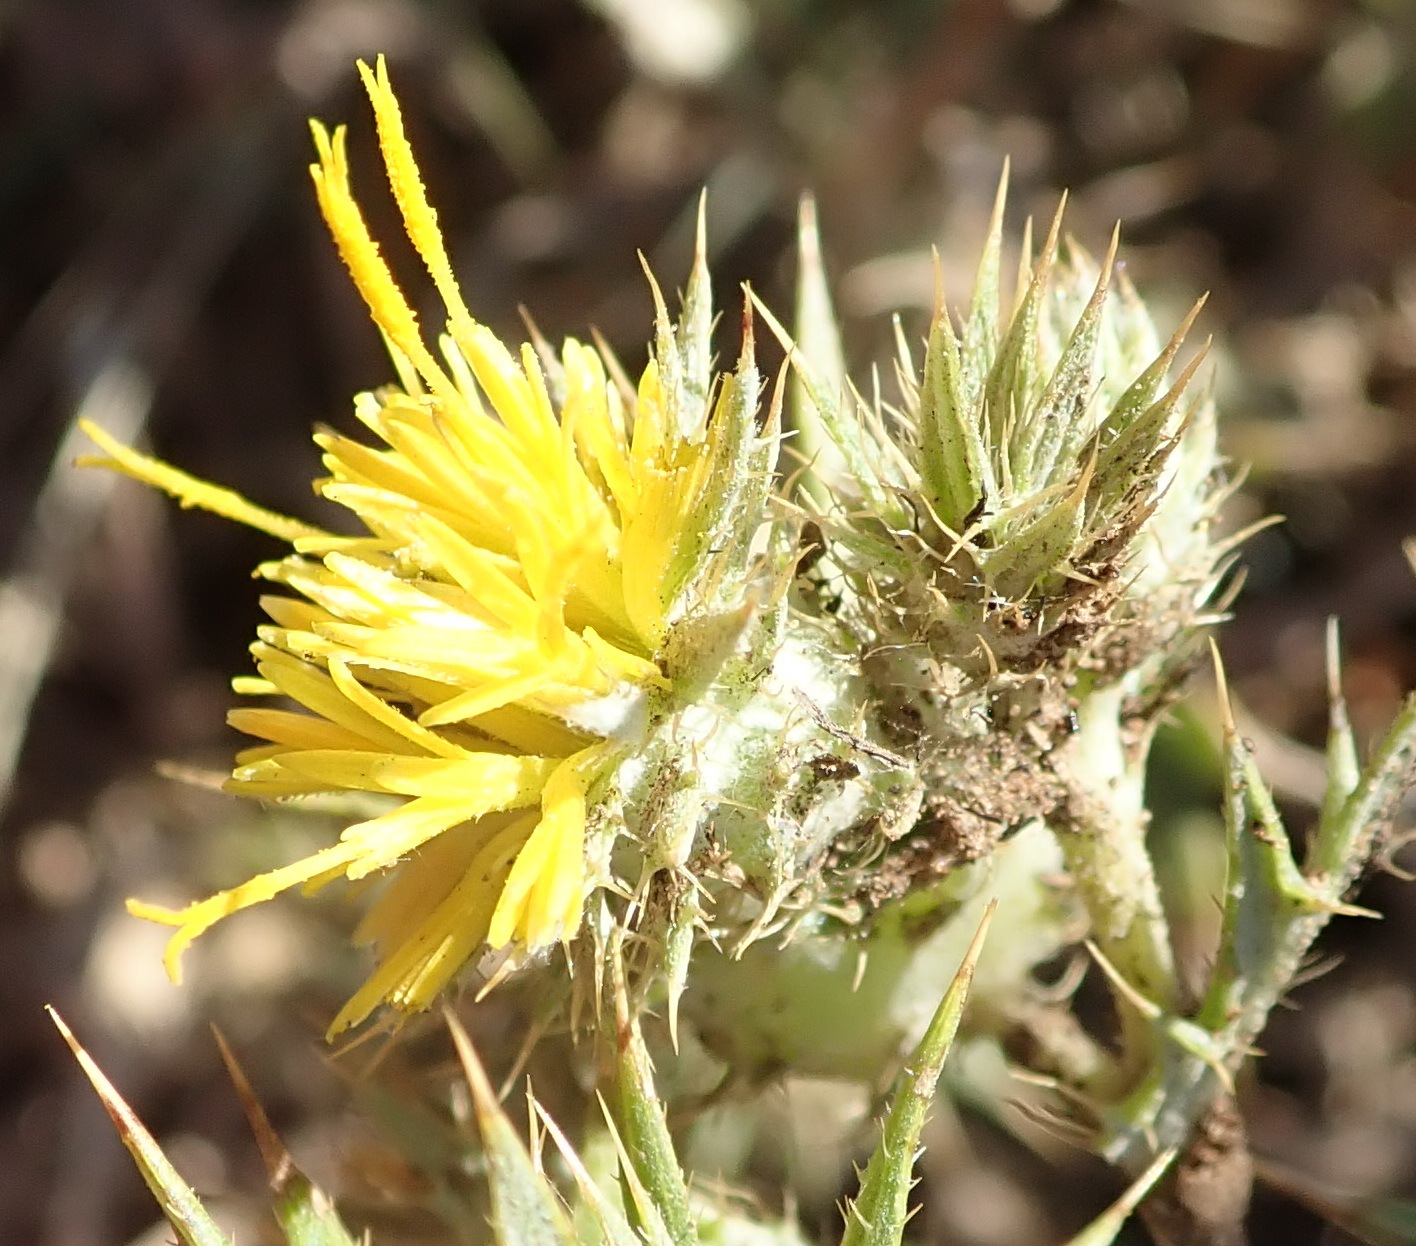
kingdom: Plantae
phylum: Tracheophyta
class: Magnoliopsida
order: Asterales
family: Asteraceae
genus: Berkheya
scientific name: Berkheya pinnatifida
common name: Lobed african thistle
